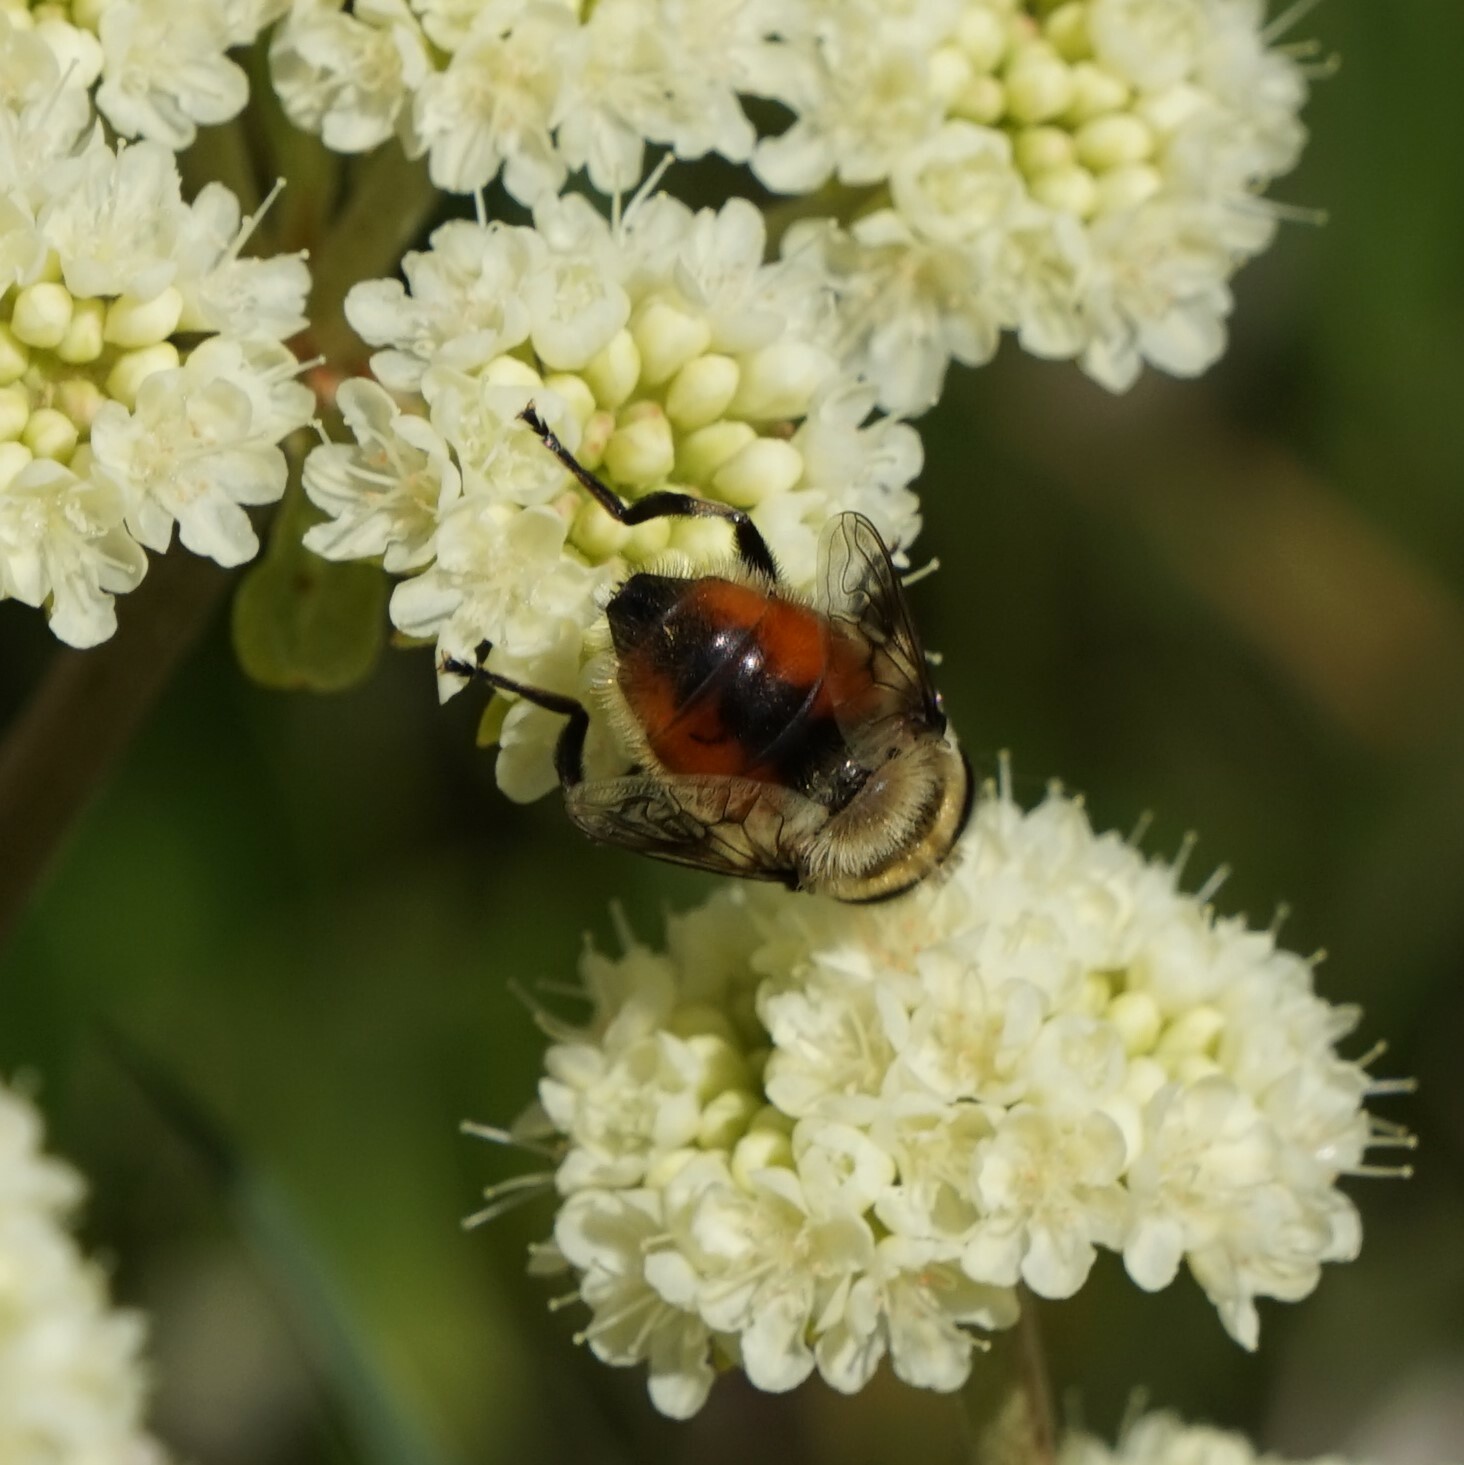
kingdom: Animalia
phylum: Arthropoda
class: Insecta
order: Diptera
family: Syrphidae
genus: Eristalis
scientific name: Eristalis anthophorina
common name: Orange-spotted drone fly
